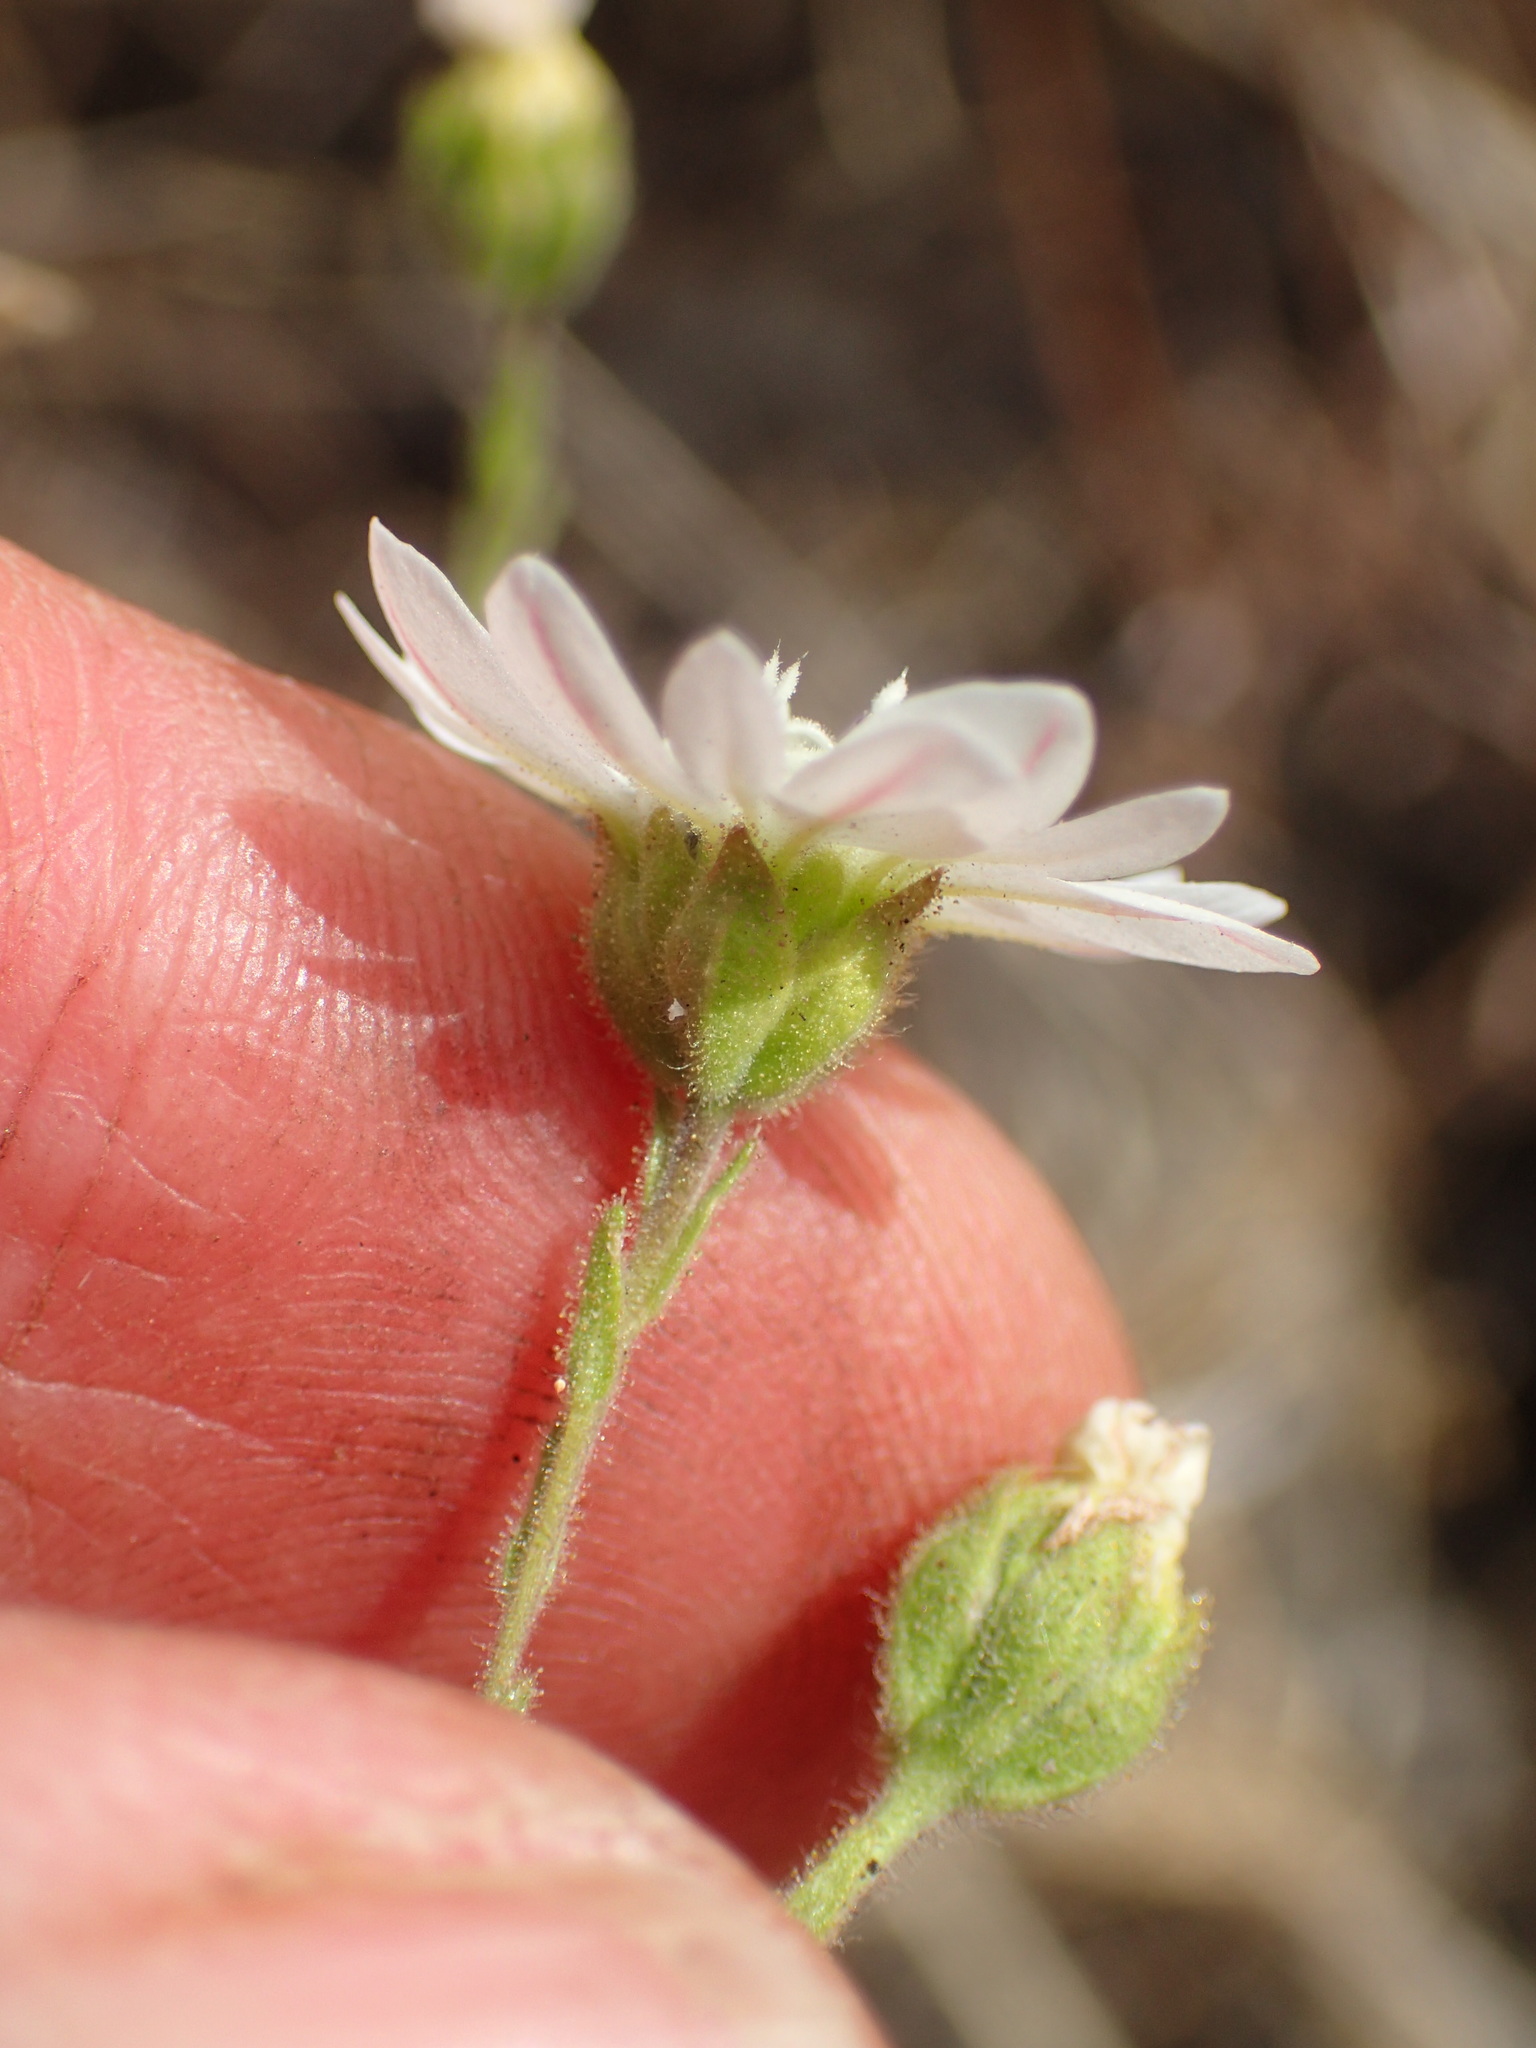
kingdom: Plantae
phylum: Tracheophyta
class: Magnoliopsida
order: Asterales
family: Asteraceae
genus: Hemizonia
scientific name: Hemizonia congesta
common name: Hayfield tarweed
